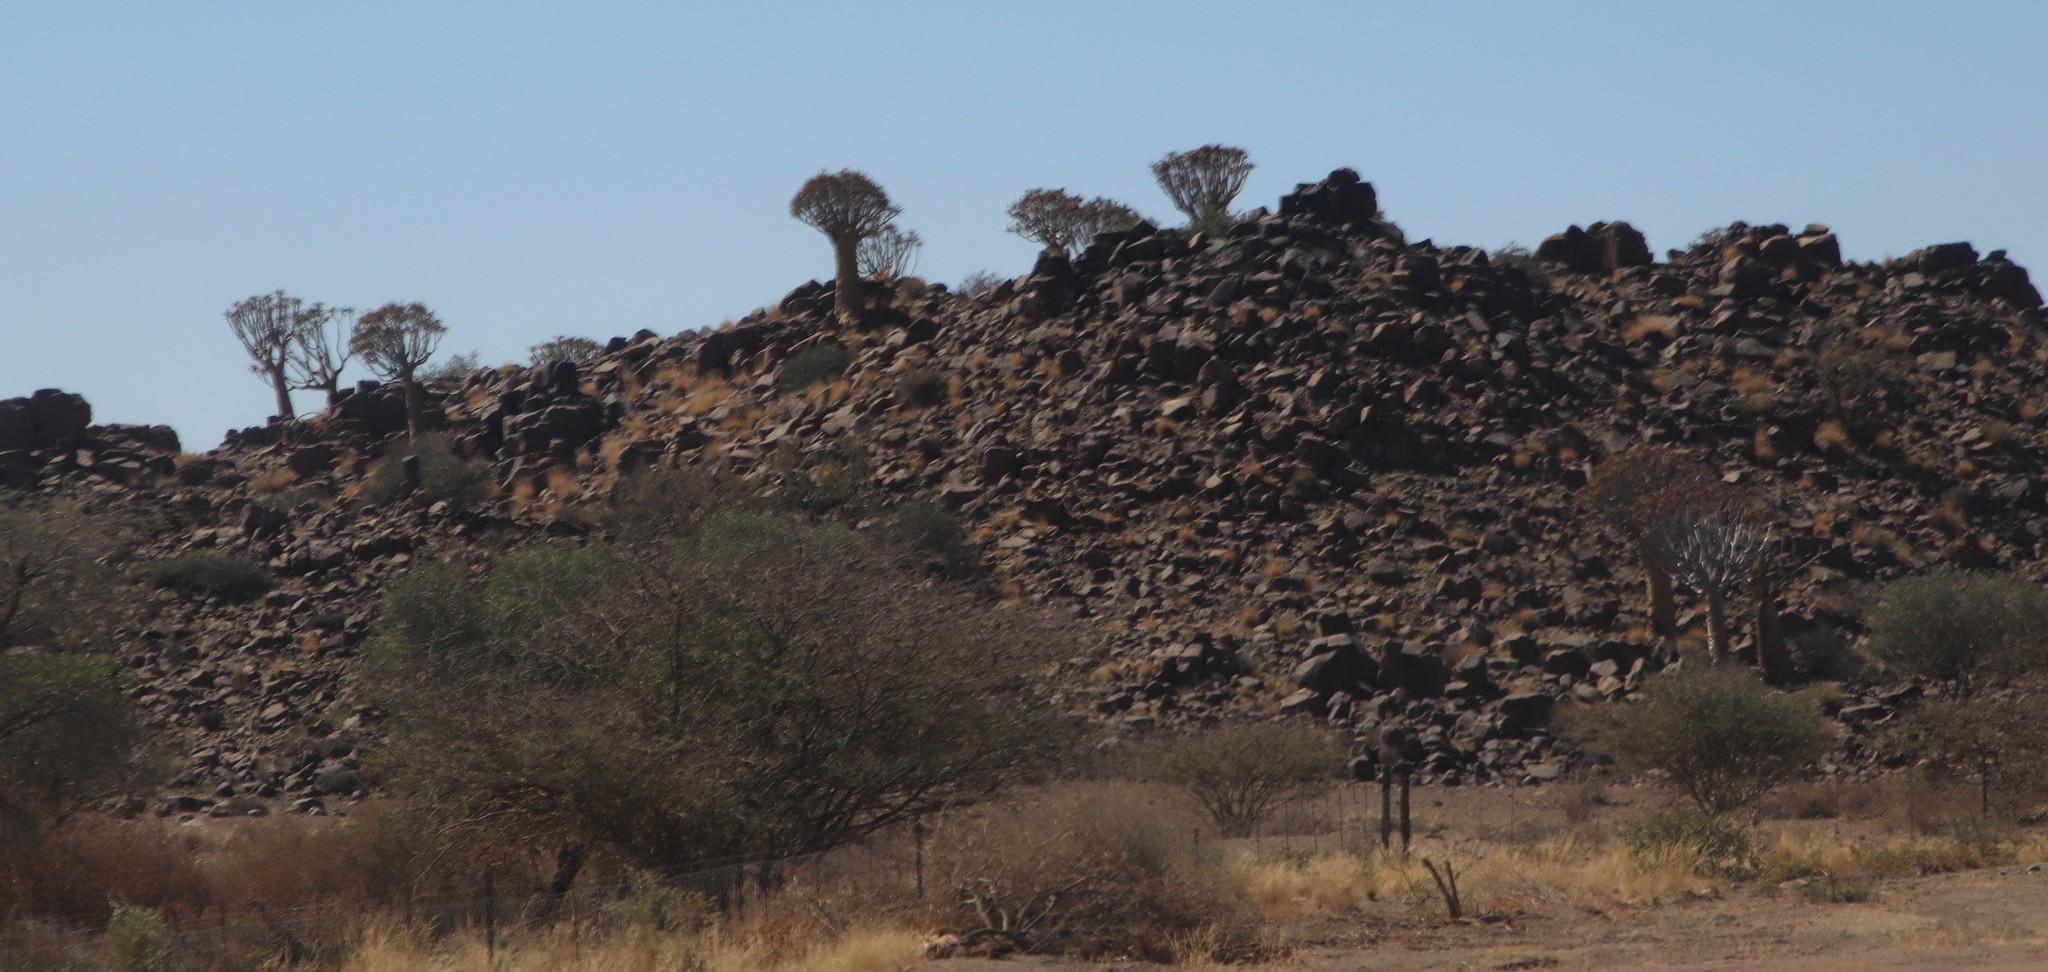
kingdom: Plantae
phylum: Tracheophyta
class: Liliopsida
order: Asparagales
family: Asphodelaceae
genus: Aloidendron
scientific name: Aloidendron dichotomum
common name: Quiver tree
